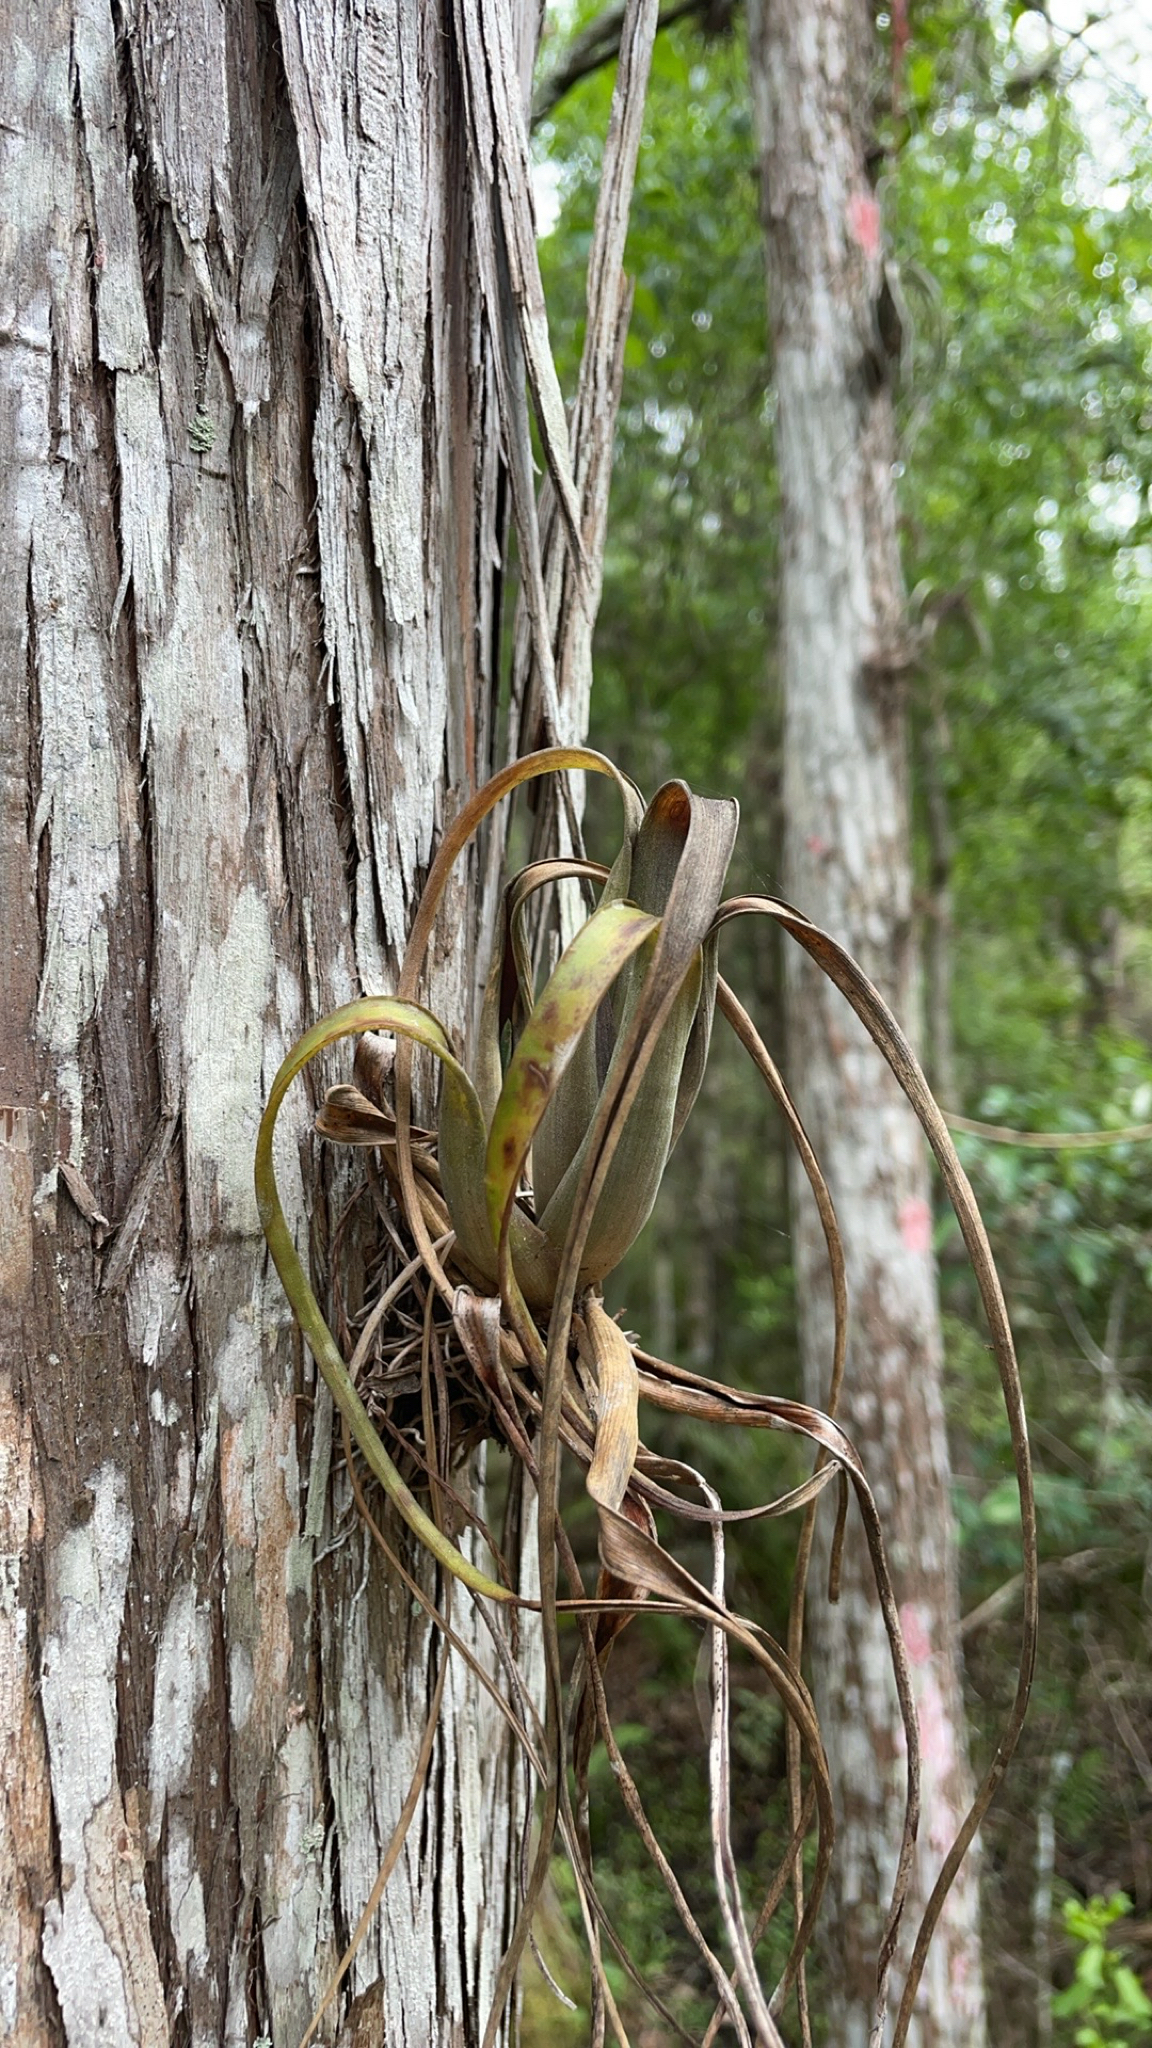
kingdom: Plantae
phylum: Tracheophyta
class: Liliopsida
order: Poales
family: Bromeliaceae
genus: Tillandsia
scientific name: Tillandsia balbisiana
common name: Northern needleleaf
